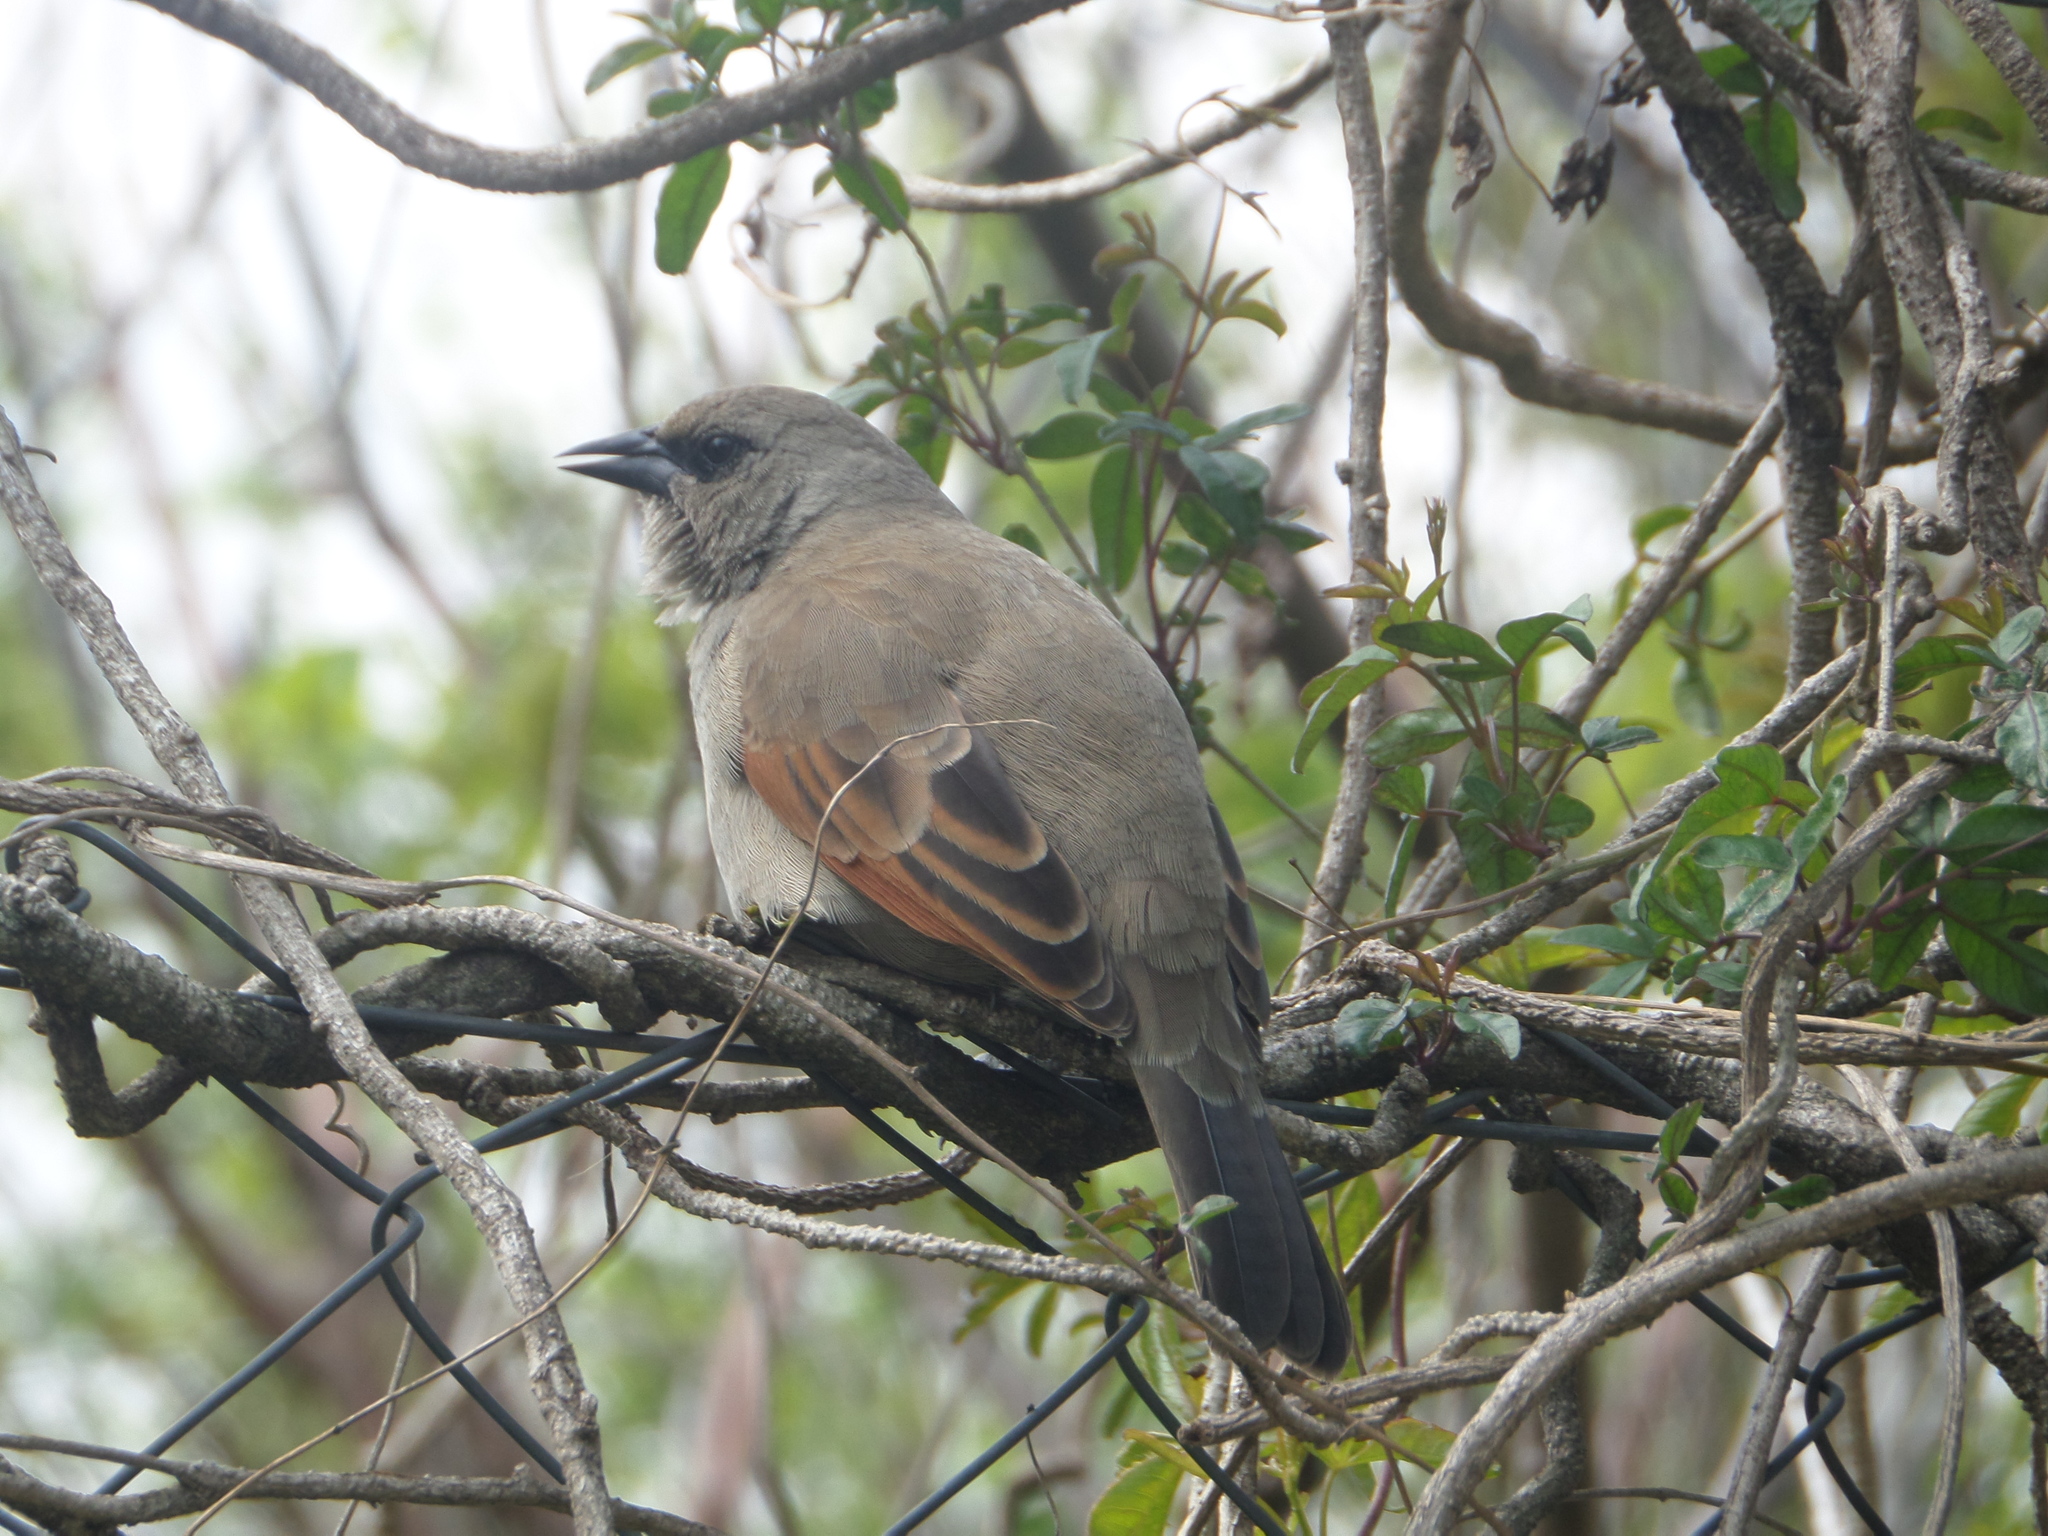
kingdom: Animalia
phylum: Chordata
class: Aves
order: Passeriformes
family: Icteridae
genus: Agelaioides
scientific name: Agelaioides badius
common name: Baywing
